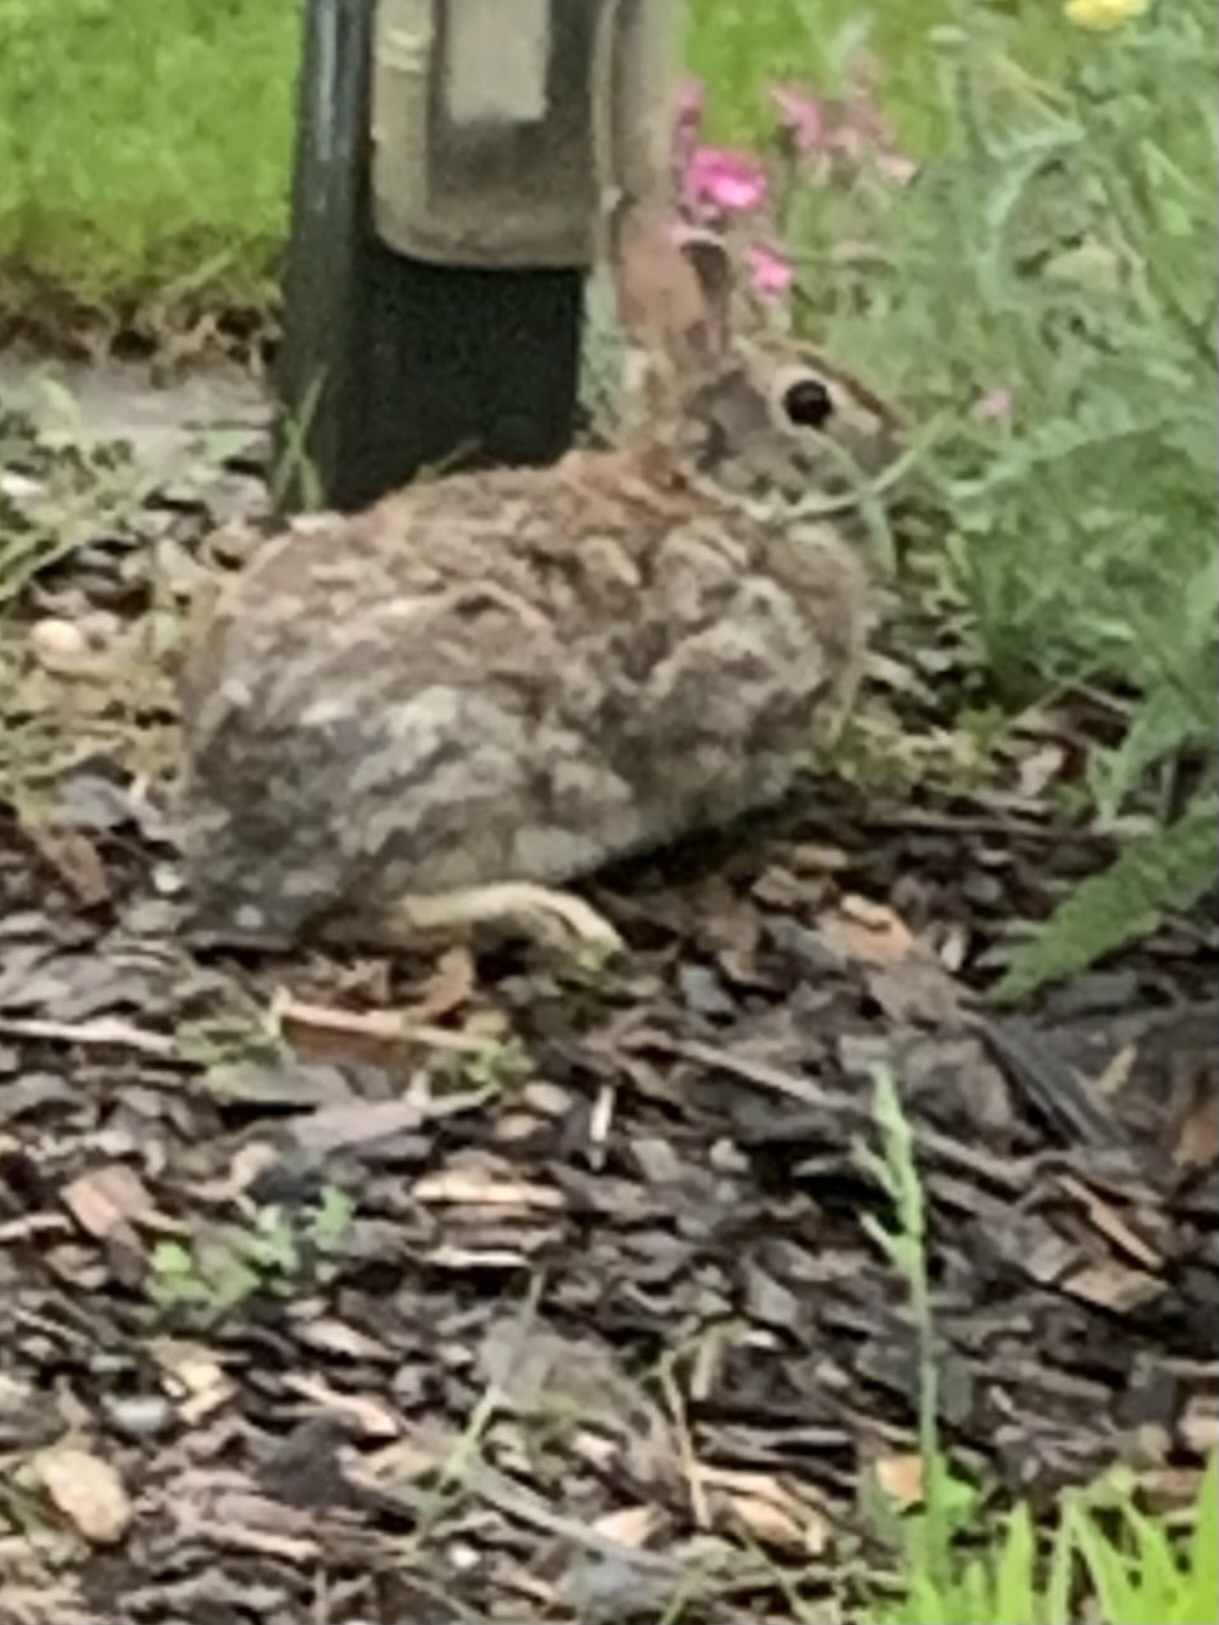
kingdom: Animalia
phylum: Chordata
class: Mammalia
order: Lagomorpha
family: Leporidae
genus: Sylvilagus
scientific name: Sylvilagus floridanus
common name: Eastern cottontail
